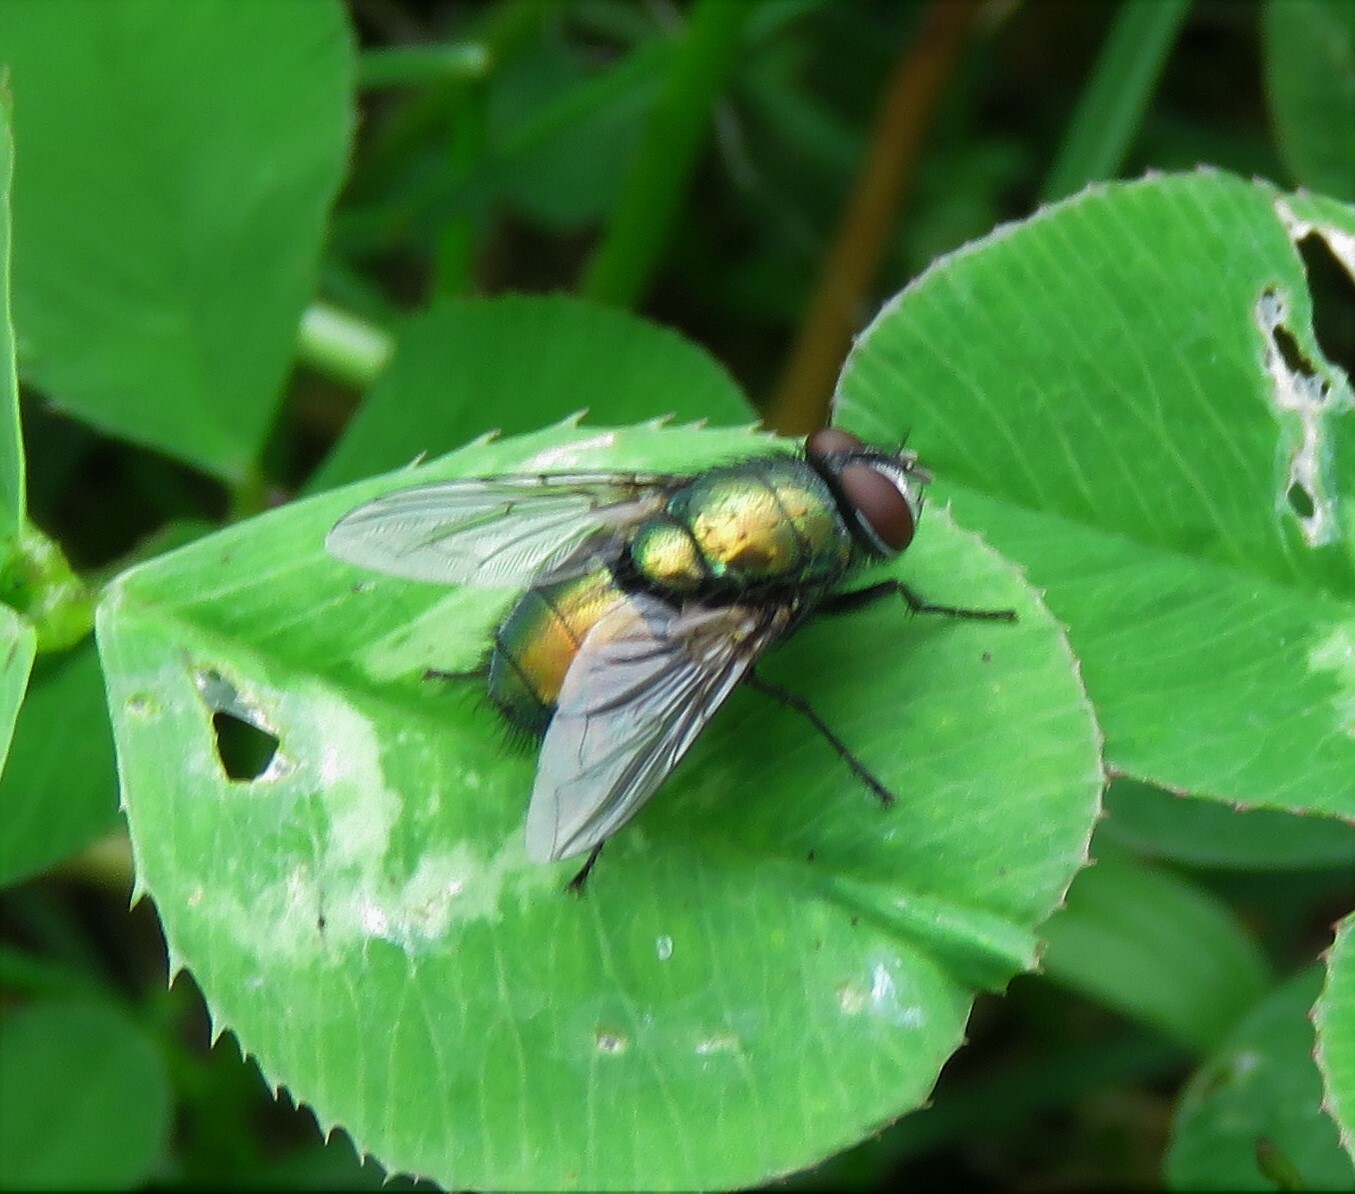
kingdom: Animalia
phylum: Arthropoda
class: Insecta
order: Diptera
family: Calliphoridae
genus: Lucilia
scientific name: Lucilia sericata
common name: Blow fly
